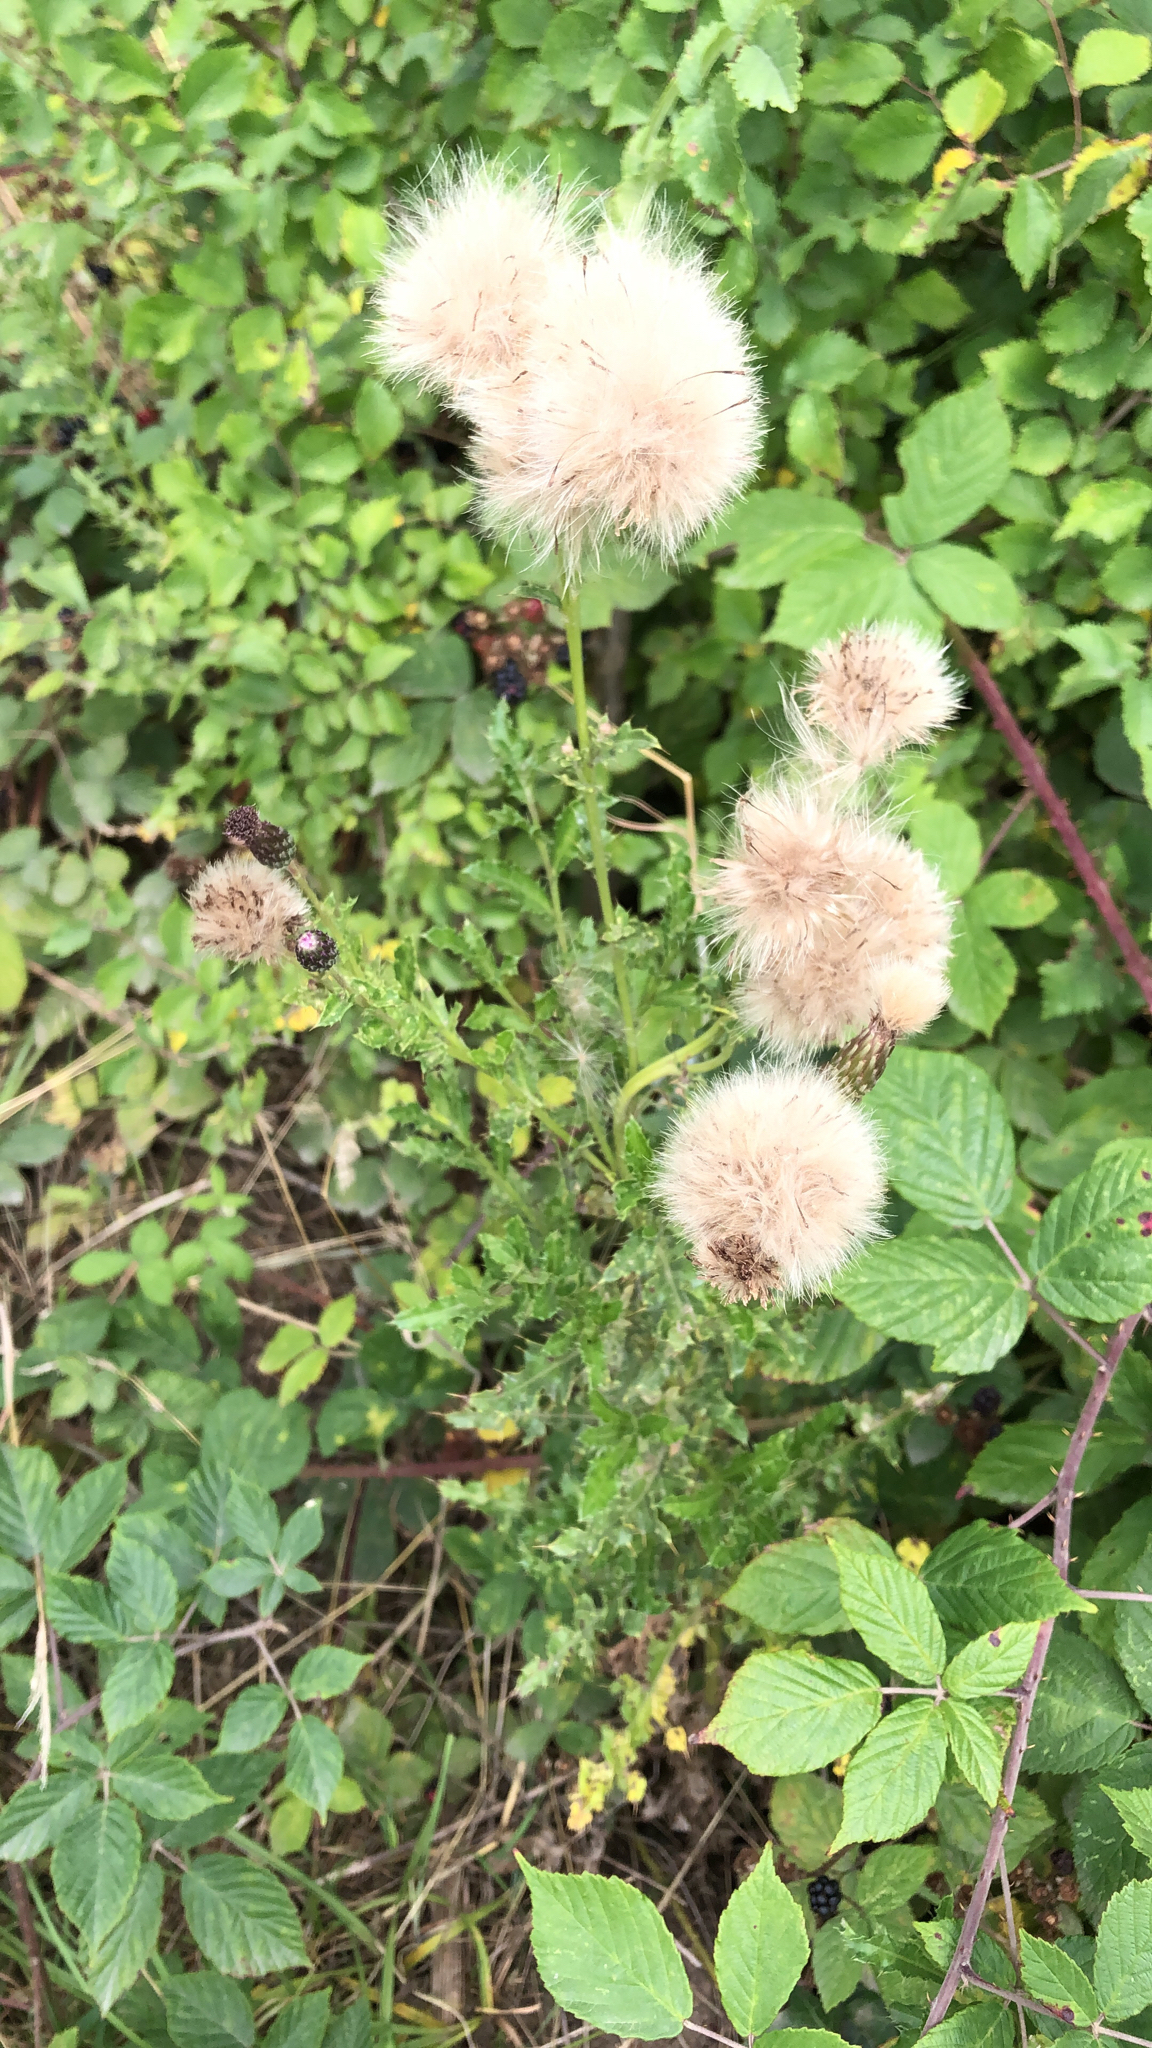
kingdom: Plantae
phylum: Tracheophyta
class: Magnoliopsida
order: Asterales
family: Asteraceae
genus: Cirsium
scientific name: Cirsium arvense
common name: Creeping thistle
